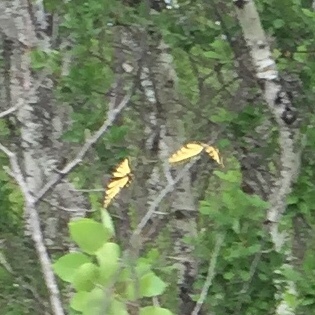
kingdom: Animalia
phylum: Arthropoda
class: Insecta
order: Lepidoptera
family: Papilionidae
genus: Papilio
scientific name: Papilio canadensis
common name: Canadian tiger swallowtail
